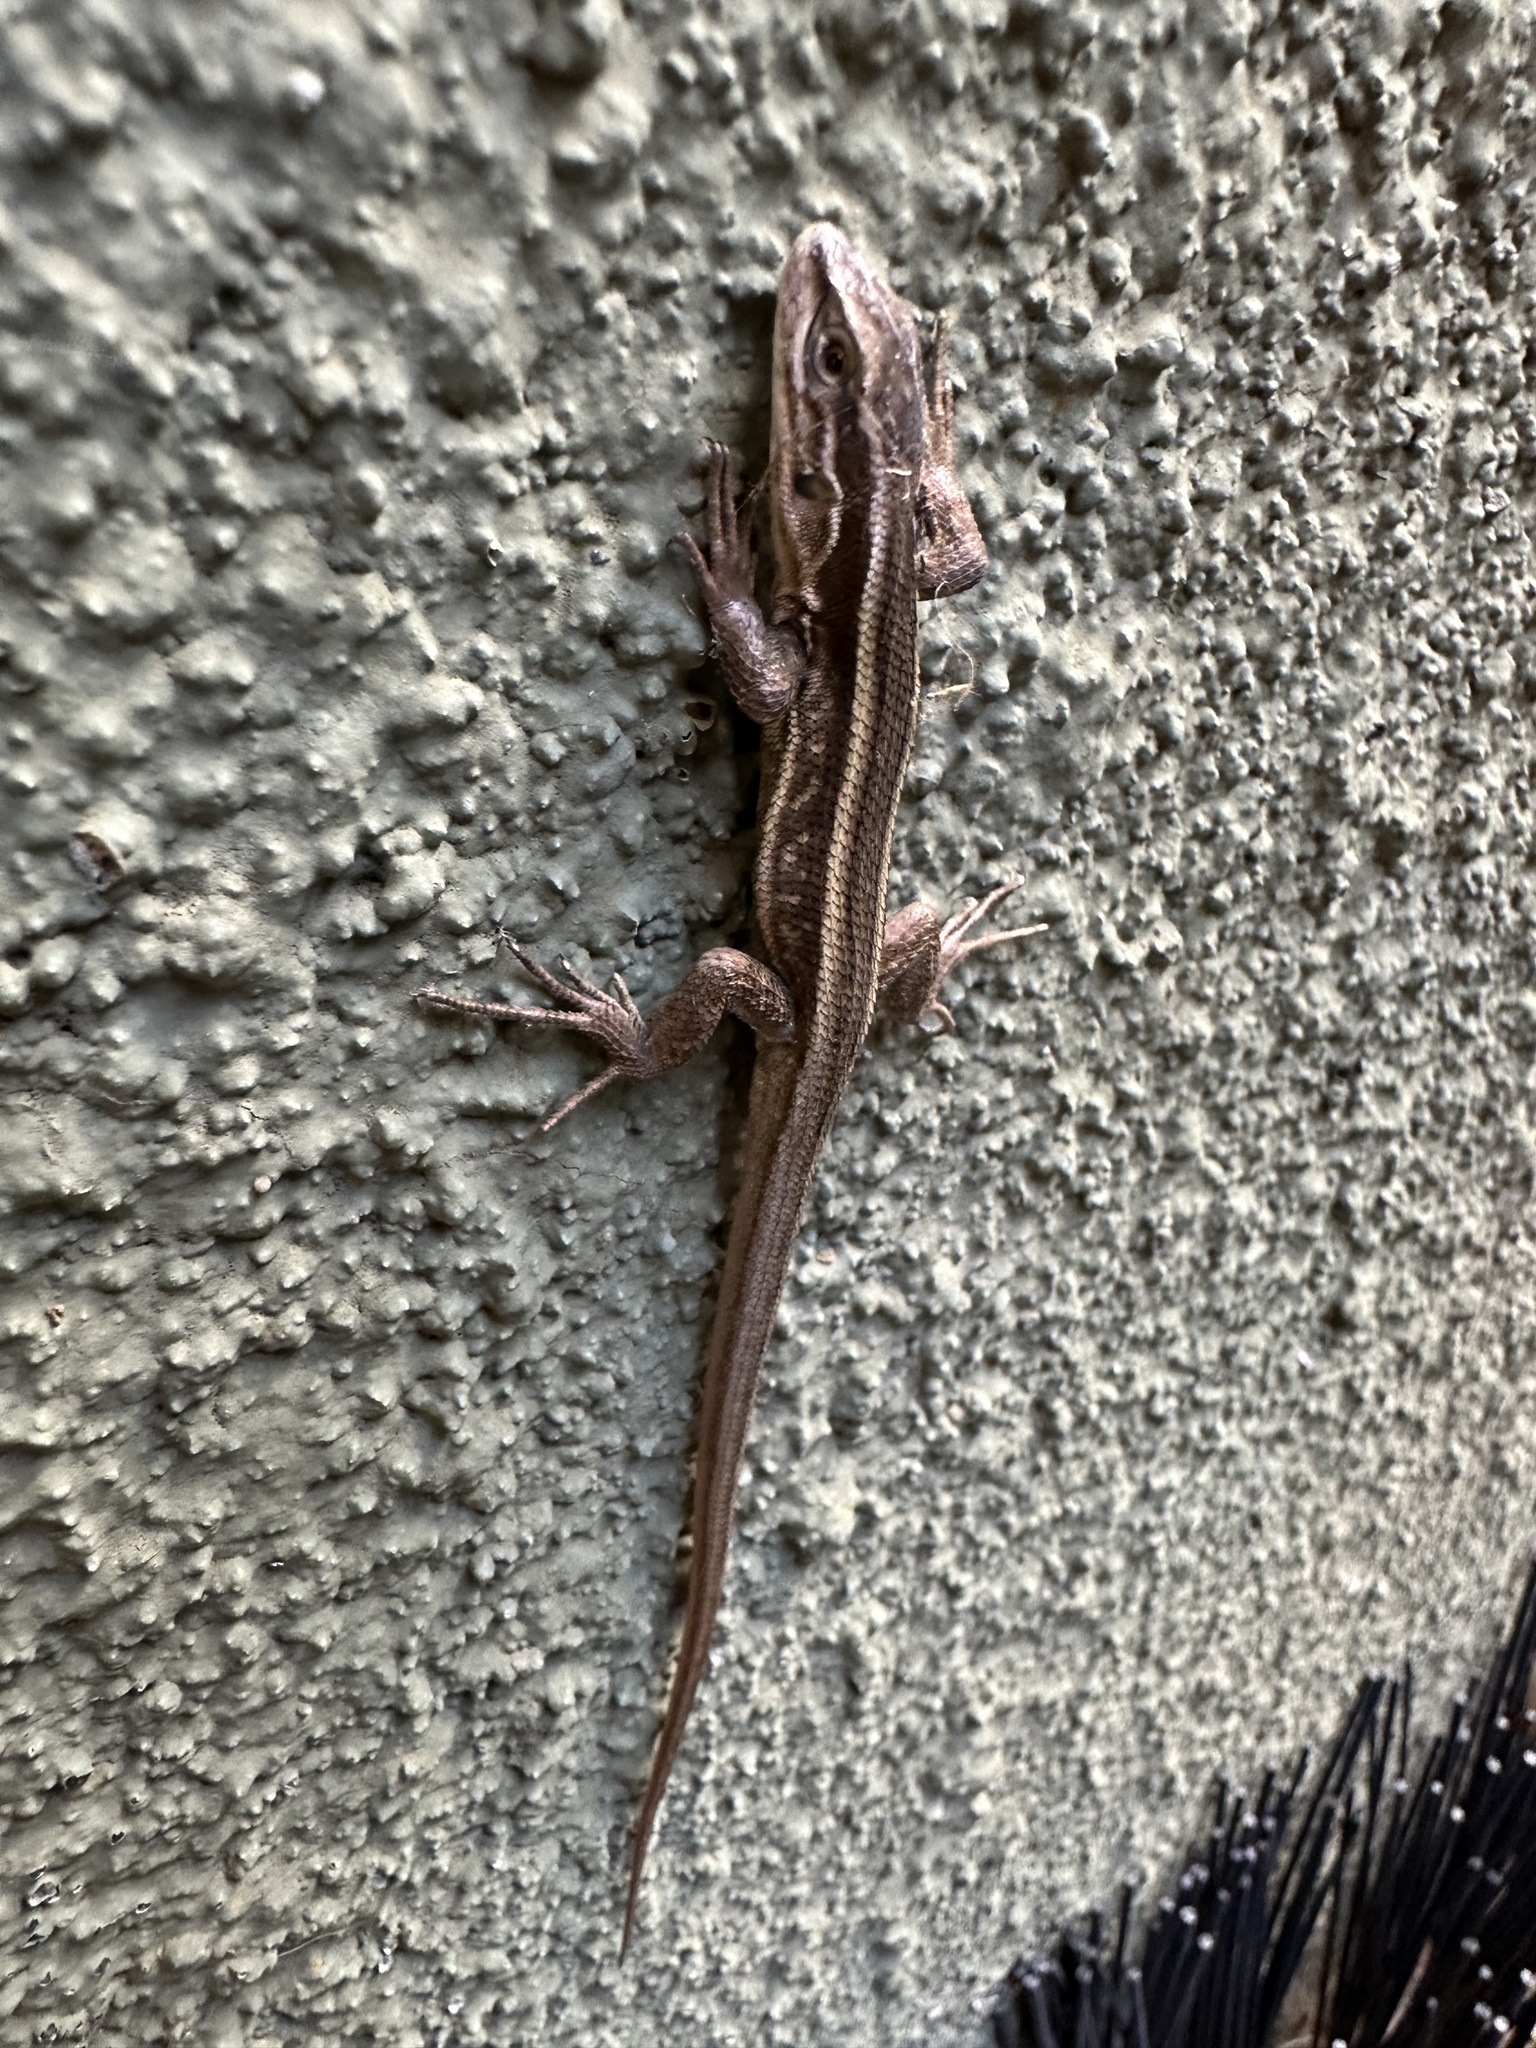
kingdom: Animalia
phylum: Chordata
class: Squamata
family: Liolaemidae
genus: Liolaemus
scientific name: Liolaemus cyanogaster
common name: Cyan tree iguana
